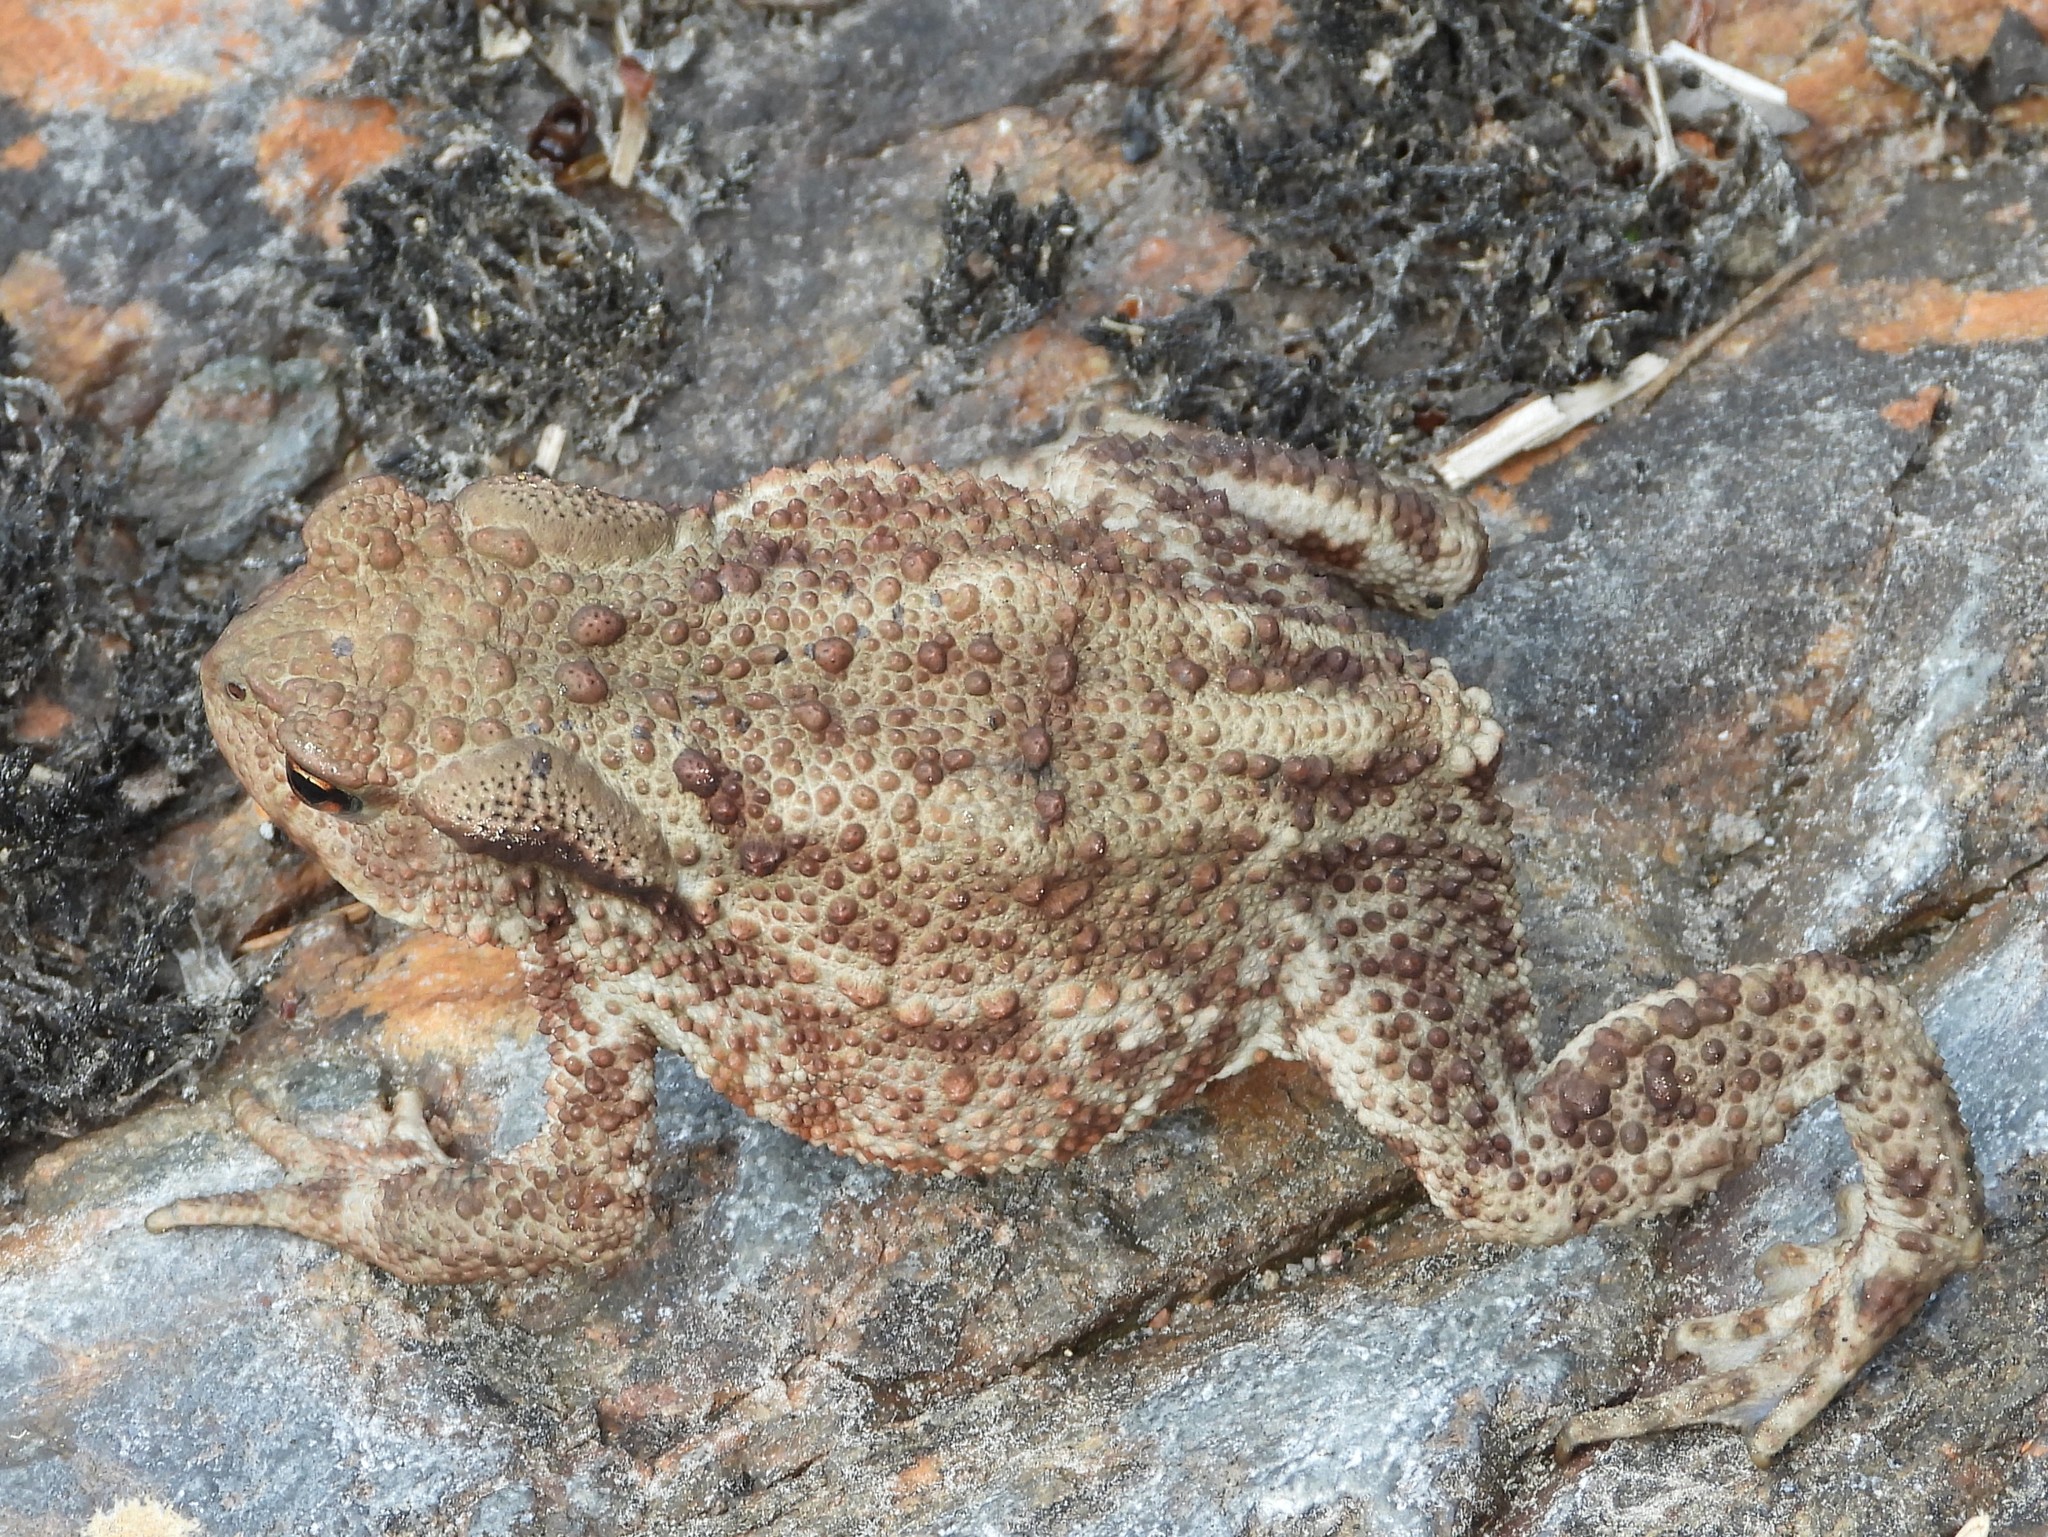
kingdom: Animalia
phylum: Chordata
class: Amphibia
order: Anura
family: Bufonidae
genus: Bufo
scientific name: Bufo bufo
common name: Common toad
